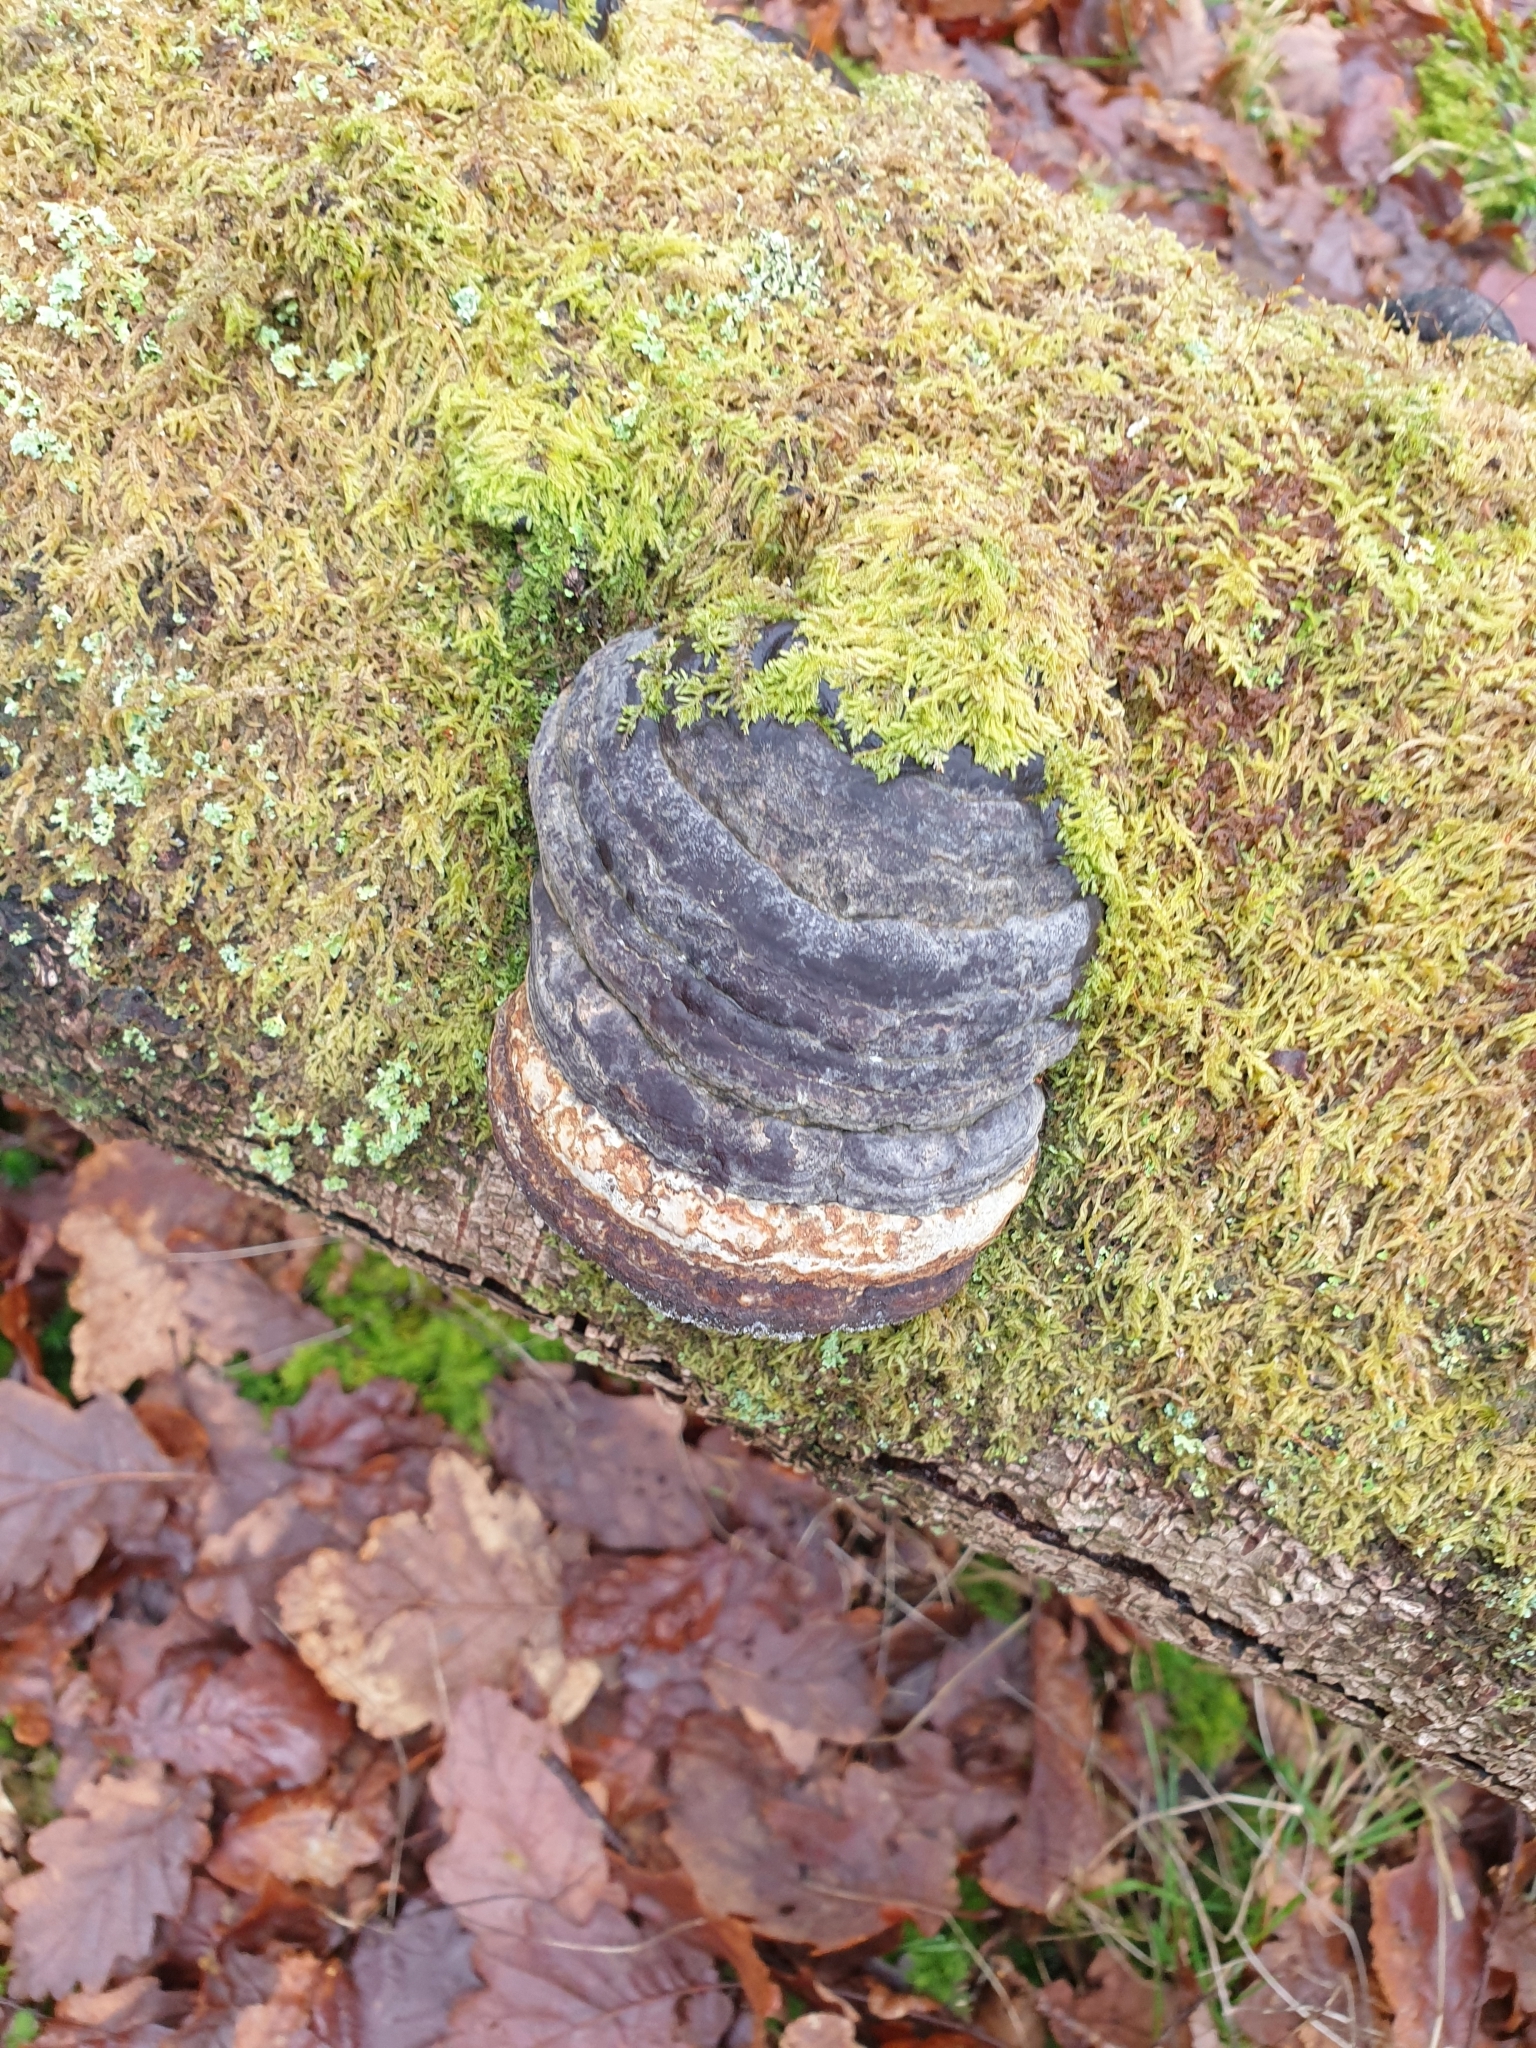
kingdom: Fungi
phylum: Basidiomycota
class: Agaricomycetes
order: Polyporales
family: Polyporaceae
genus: Fomes
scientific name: Fomes fomentarius
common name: Hoof fungus
